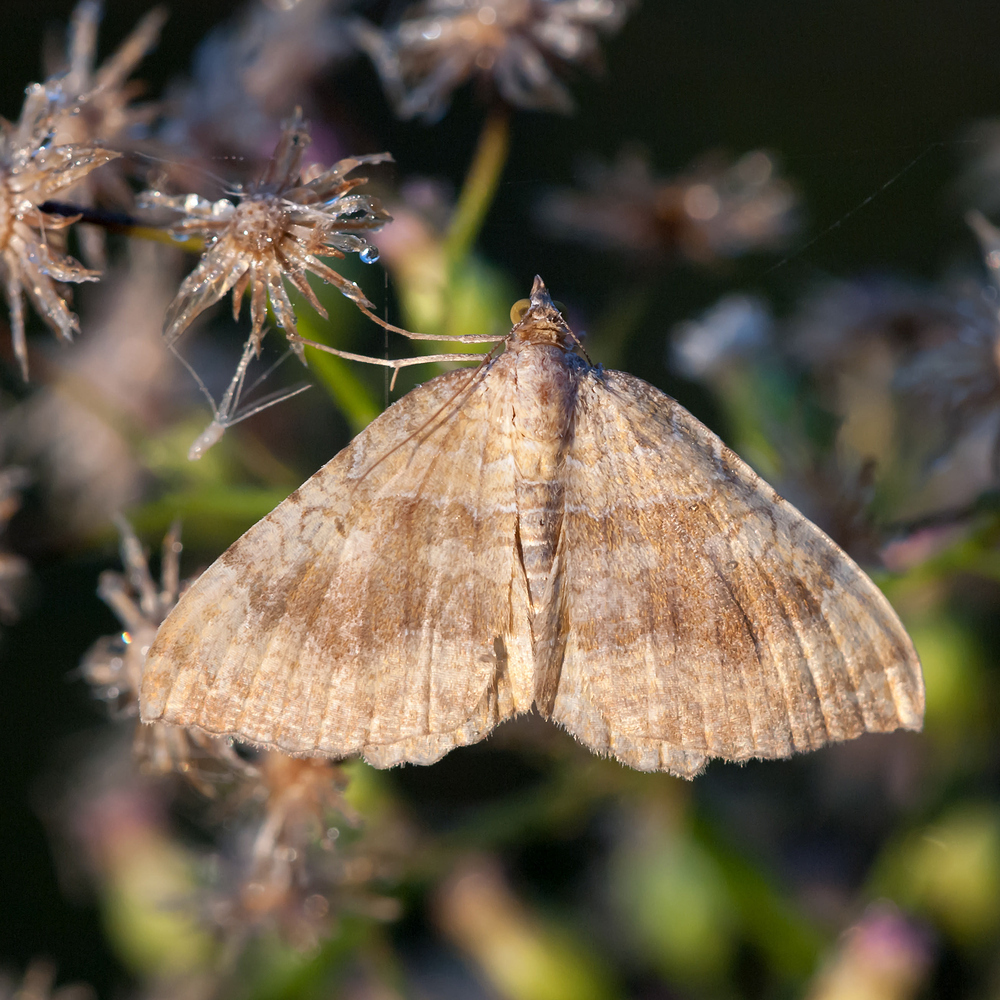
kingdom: Animalia
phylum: Arthropoda
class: Insecta
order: Lepidoptera
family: Geometridae
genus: Camptogramma
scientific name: Camptogramma bilineata
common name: Yellow shell
